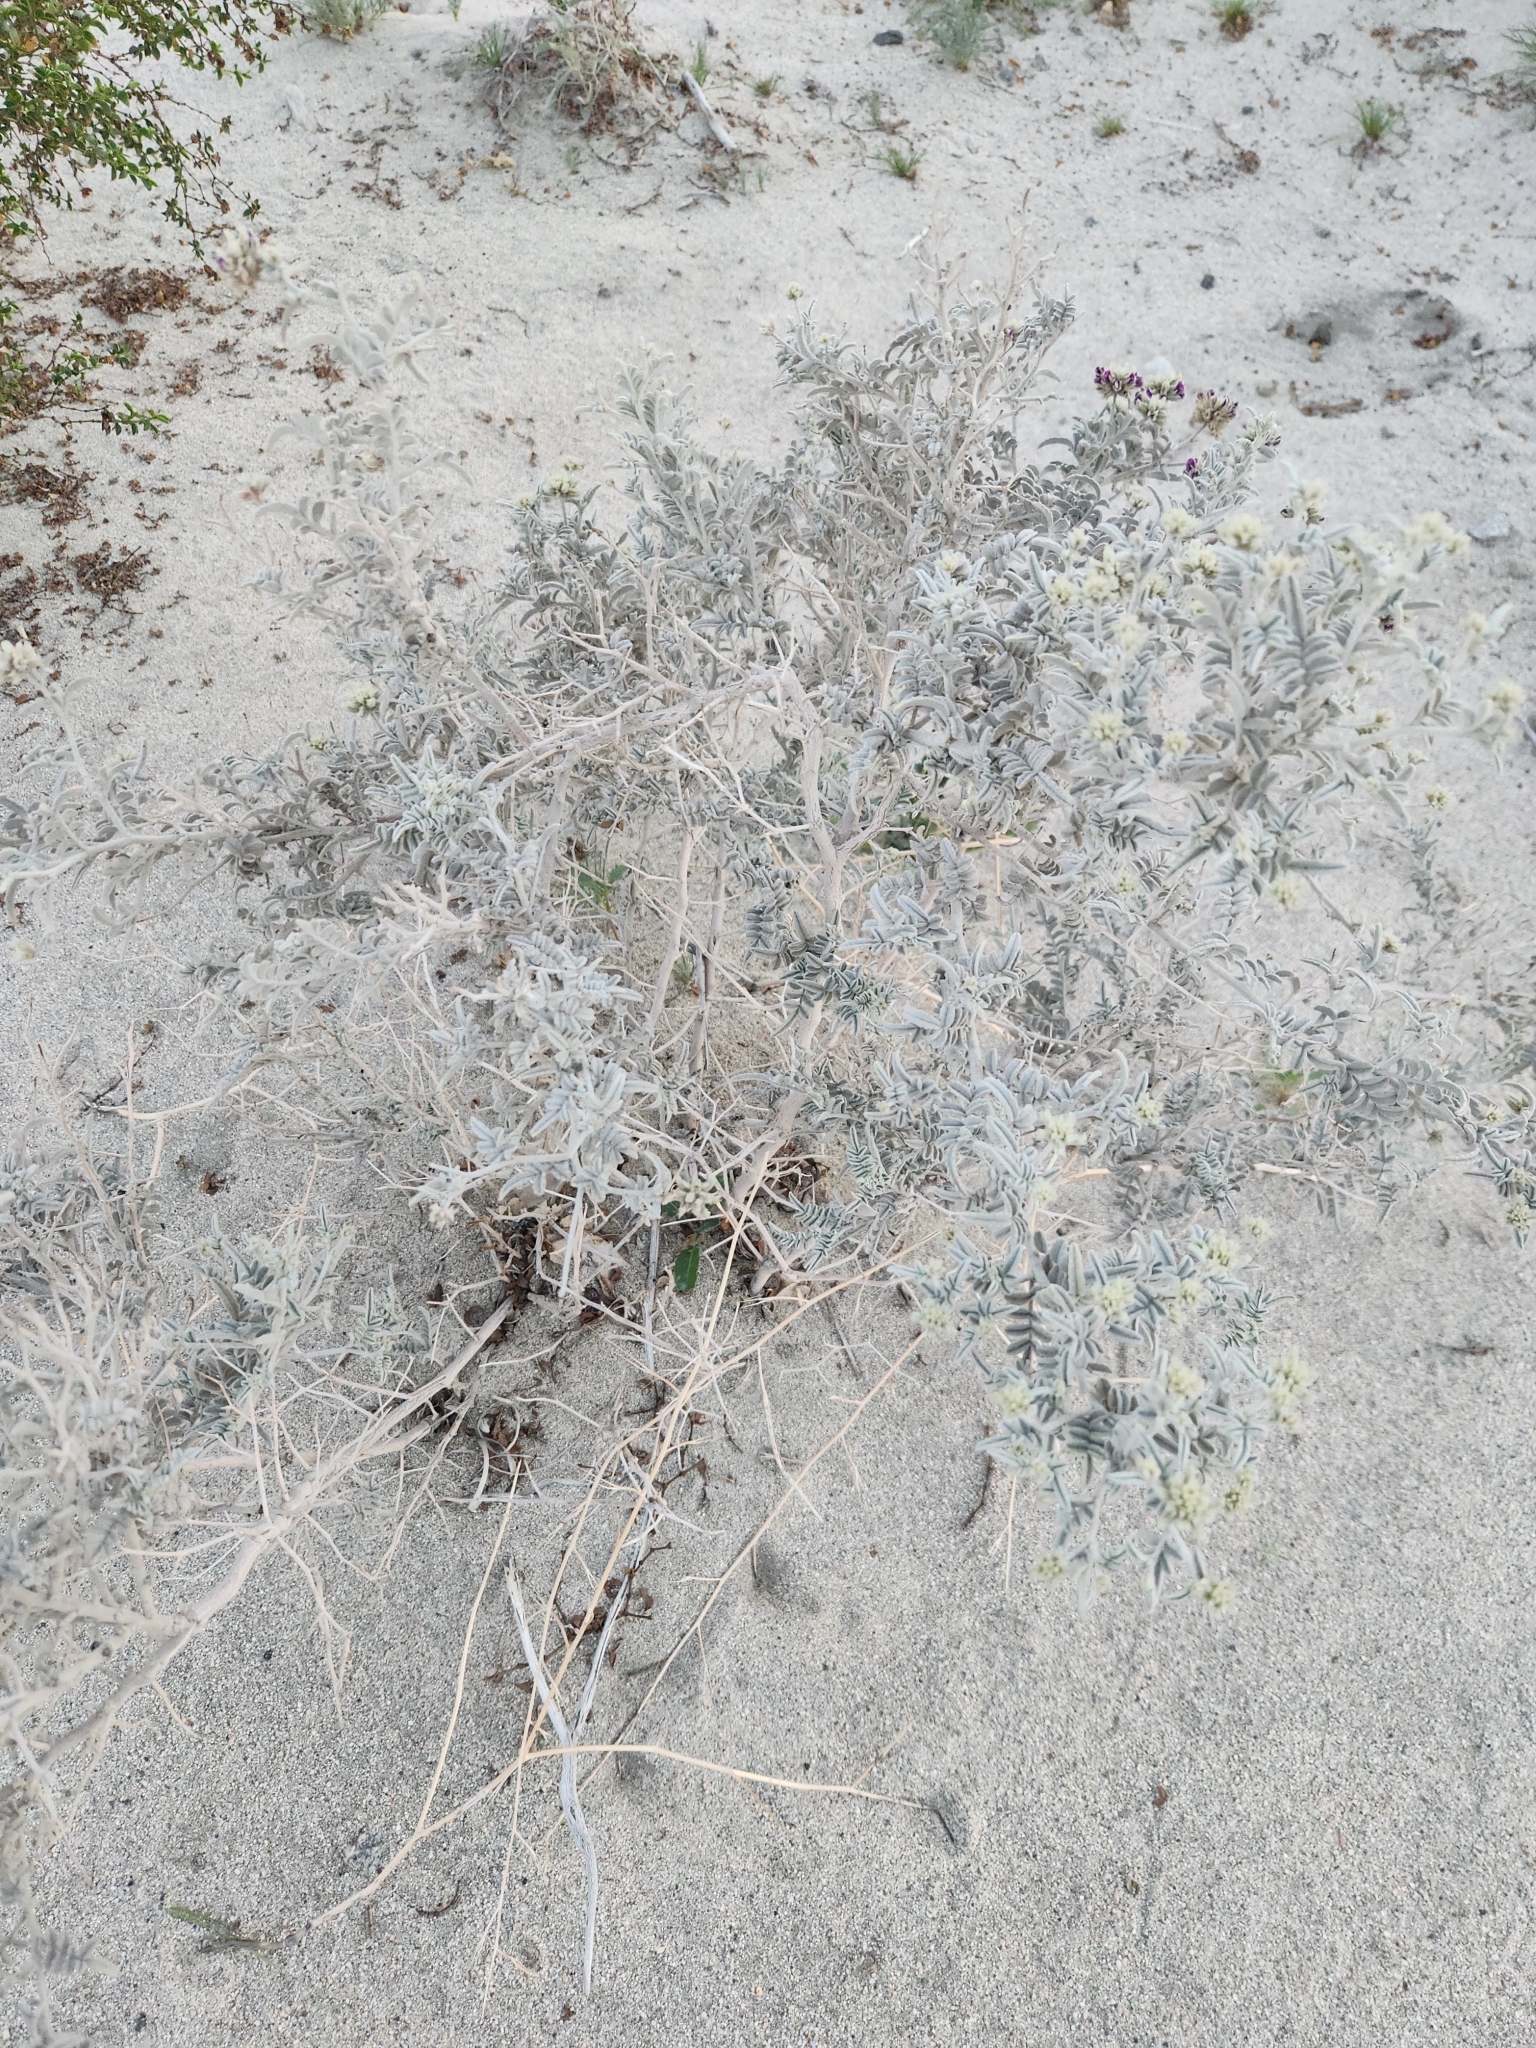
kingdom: Plantae
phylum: Tracheophyta
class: Magnoliopsida
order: Fabales
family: Fabaceae
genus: Psorothamnus
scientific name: Psorothamnus emoryi
